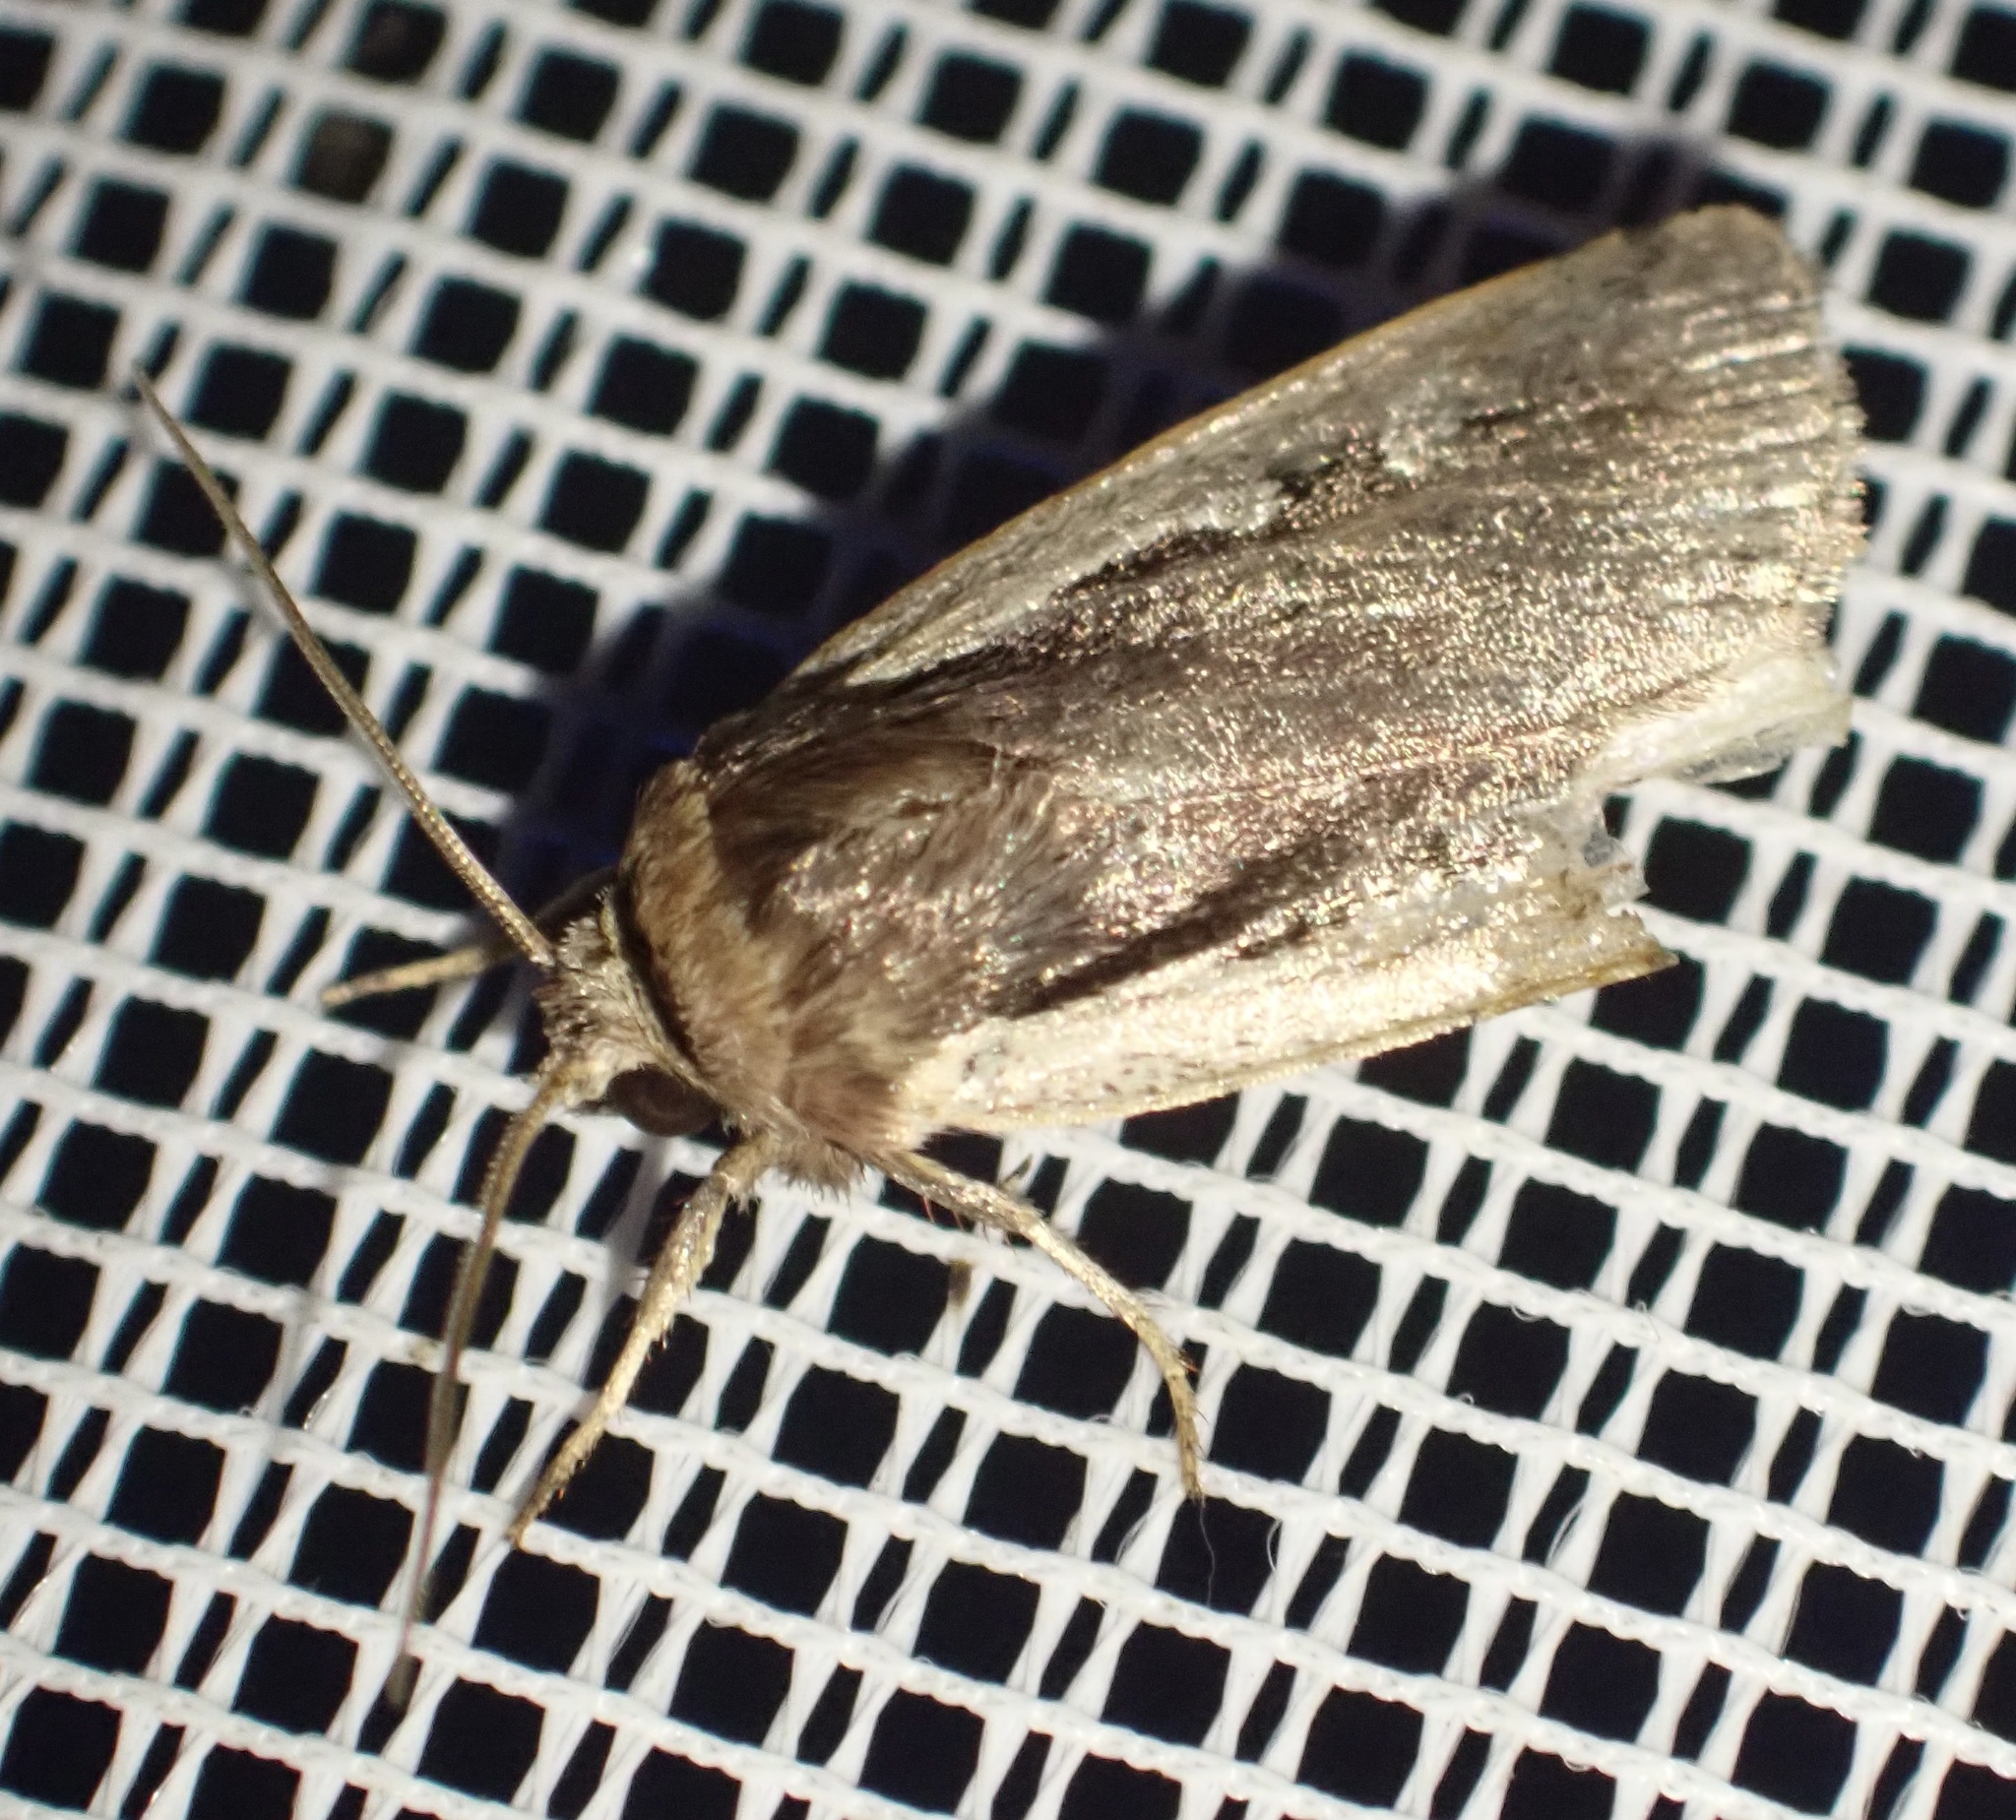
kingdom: Animalia
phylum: Arthropoda
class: Insecta
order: Lepidoptera
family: Noctuidae
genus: Ochropleura
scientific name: Ochropleura plecta
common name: Flame shoulder
